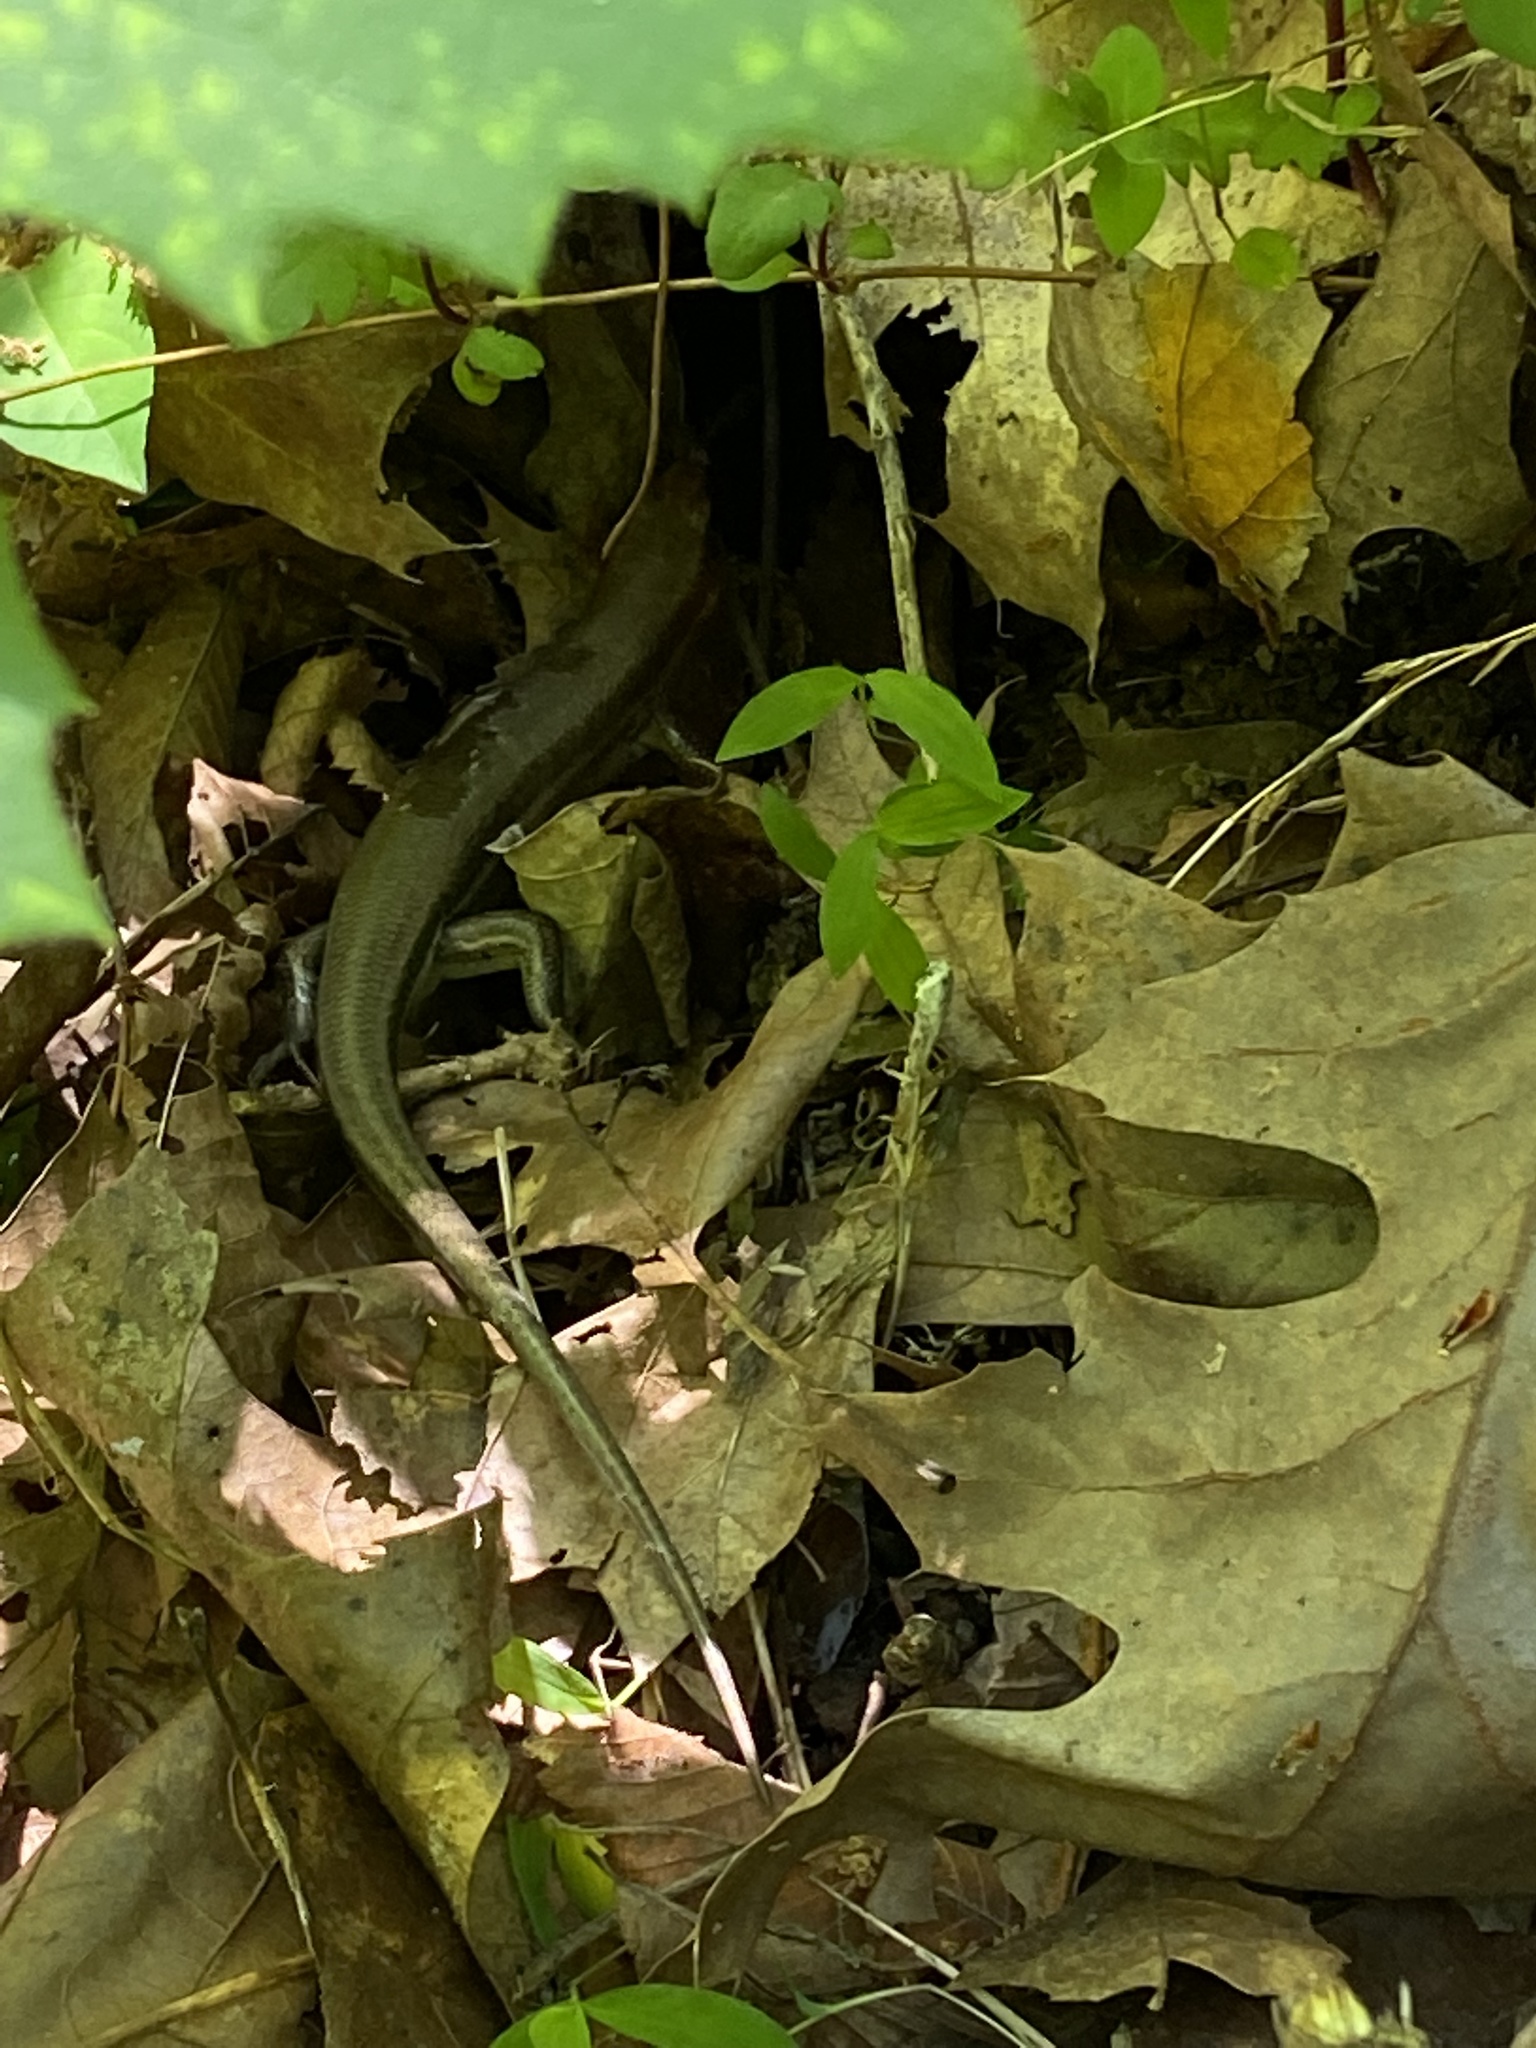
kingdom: Animalia
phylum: Chordata
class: Squamata
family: Scincidae
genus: Plestiodon
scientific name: Plestiodon fasciatus
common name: Five-lined skink
